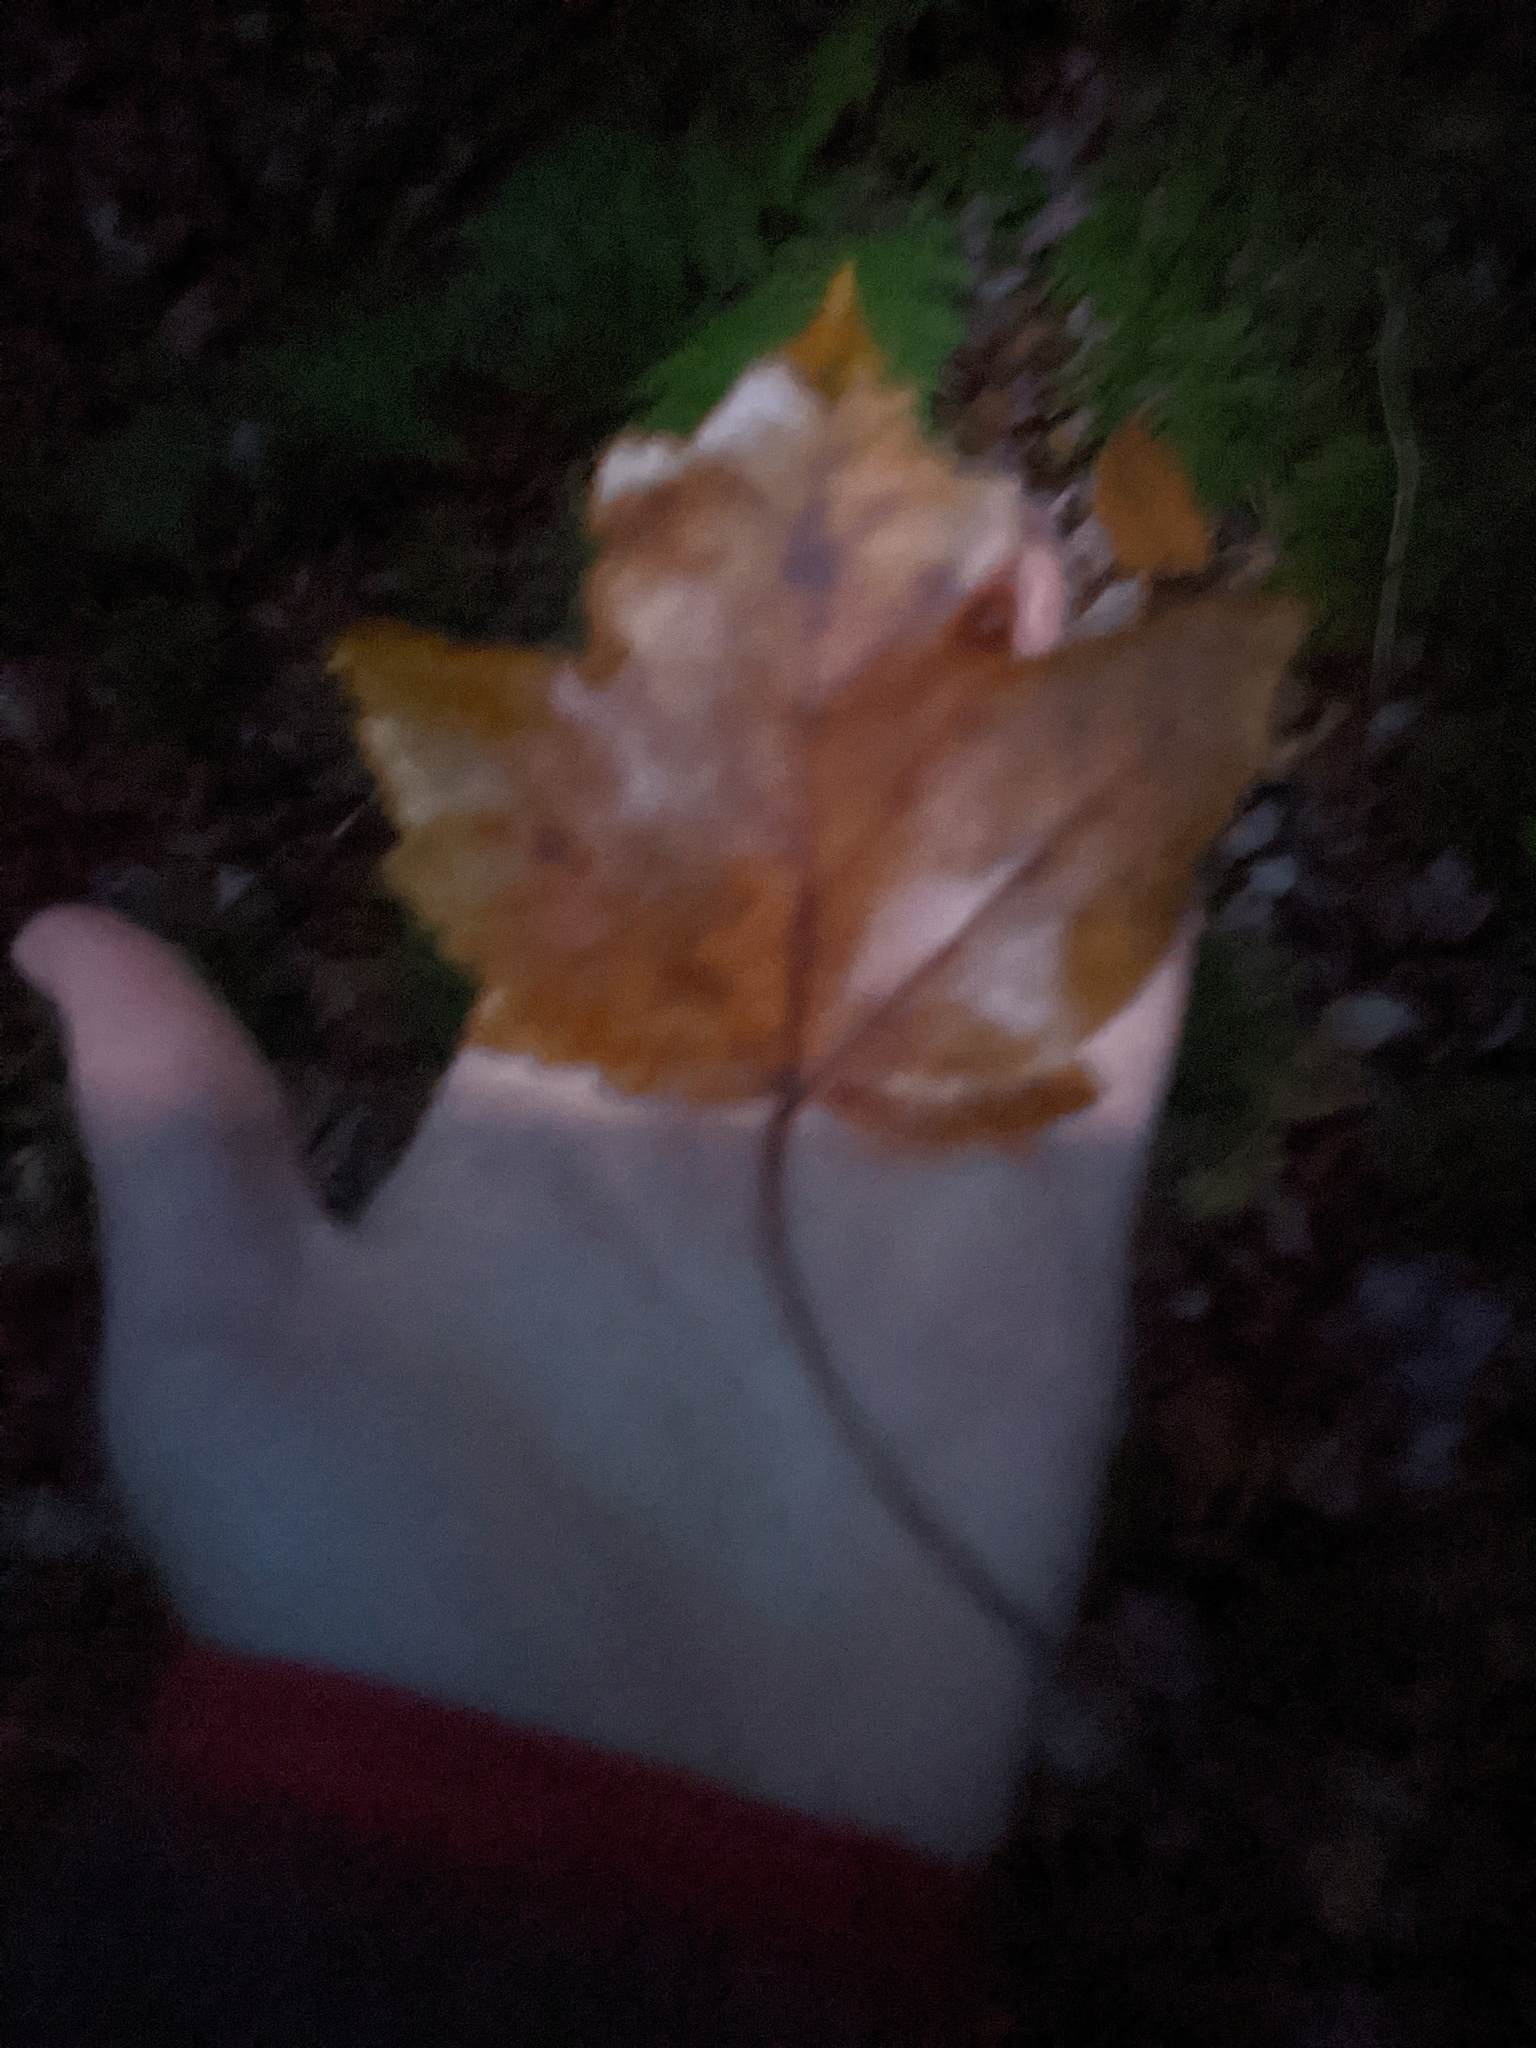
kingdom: Plantae
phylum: Tracheophyta
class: Magnoliopsida
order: Sapindales
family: Sapindaceae
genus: Acer
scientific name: Acer rubrum
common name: Red maple
